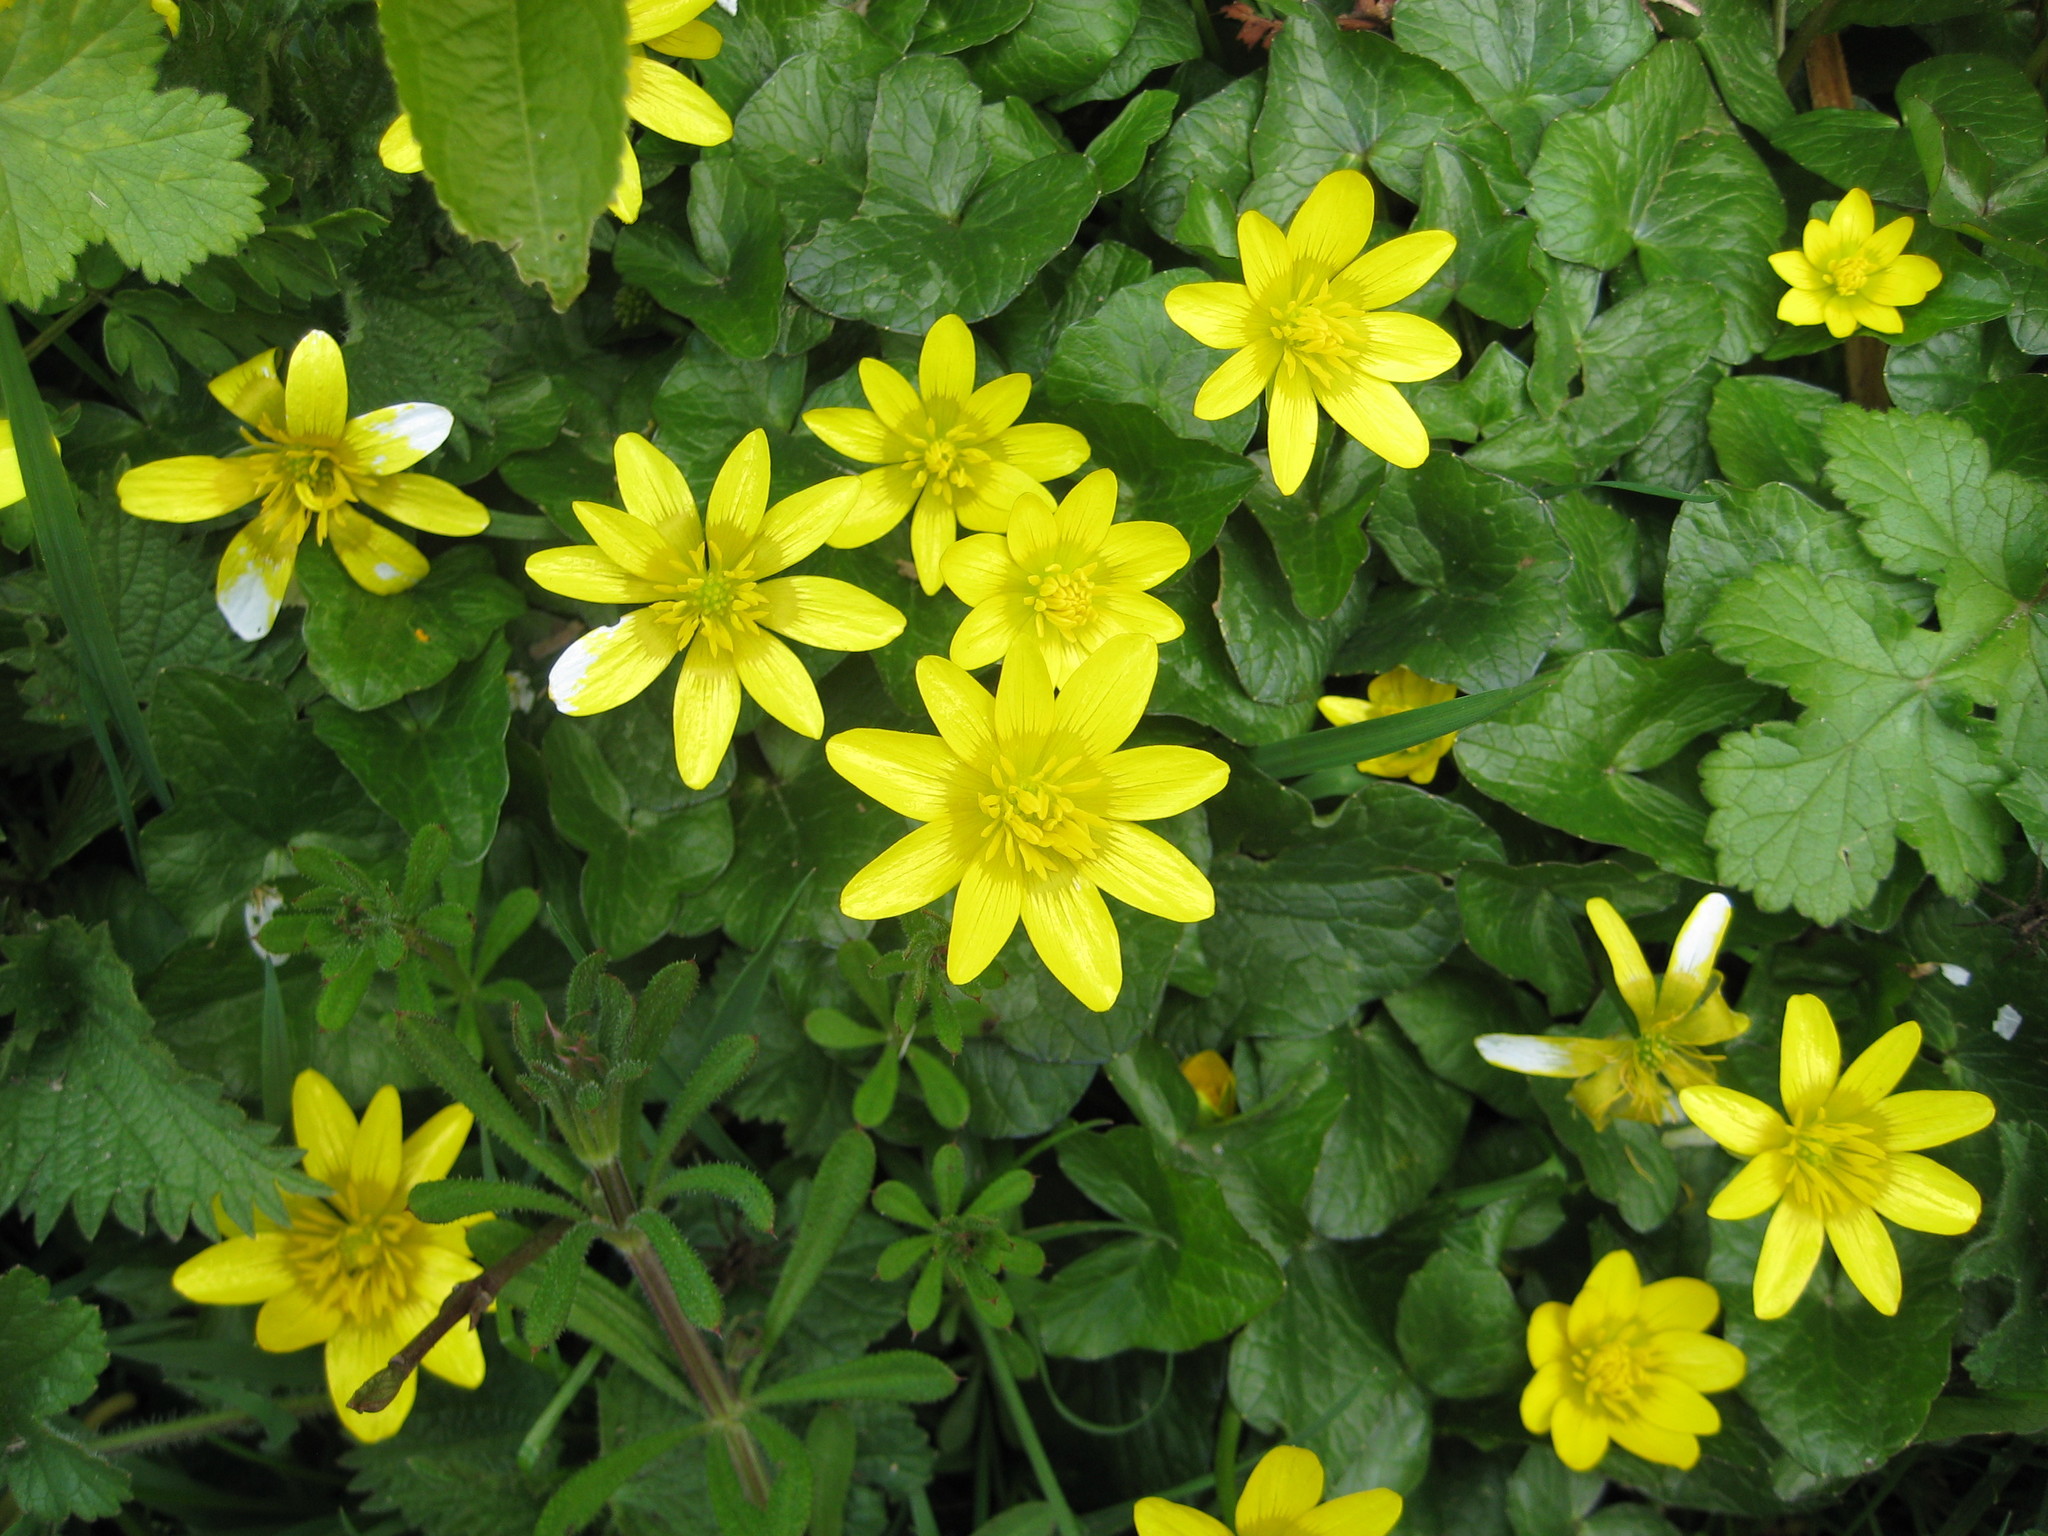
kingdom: Plantae
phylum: Tracheophyta
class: Magnoliopsida
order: Ranunculales
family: Ranunculaceae
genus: Ficaria
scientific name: Ficaria verna
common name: Lesser celandine
